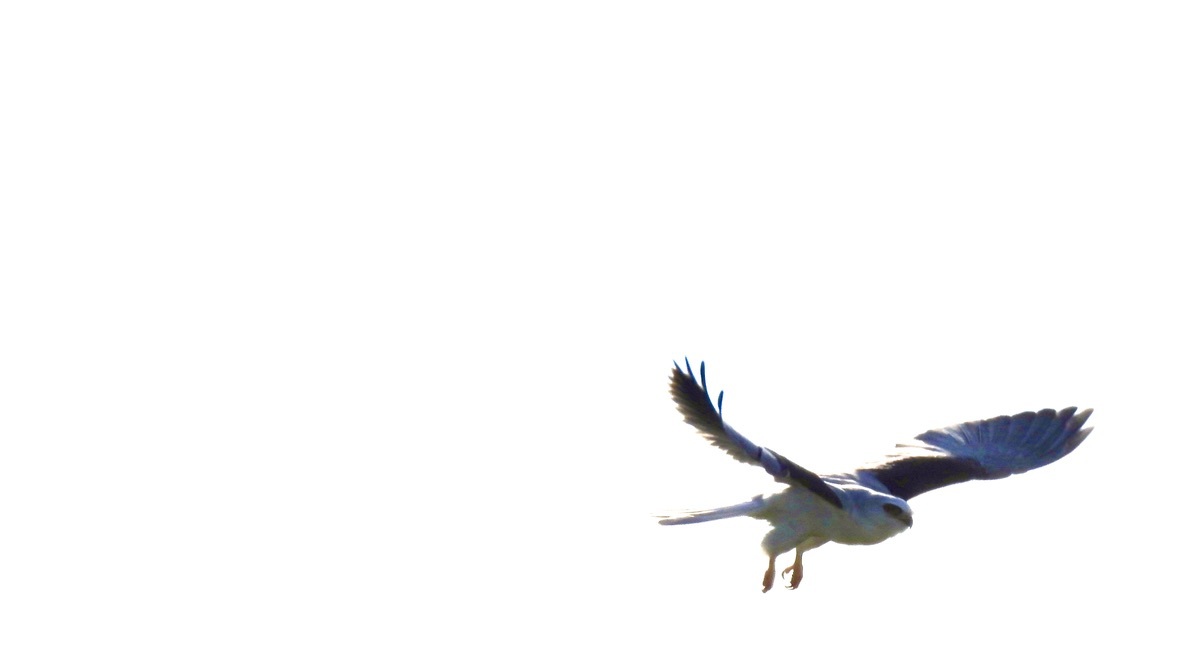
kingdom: Animalia
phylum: Chordata
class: Aves
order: Accipitriformes
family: Accipitridae
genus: Elanus
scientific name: Elanus leucurus
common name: White-tailed kite
